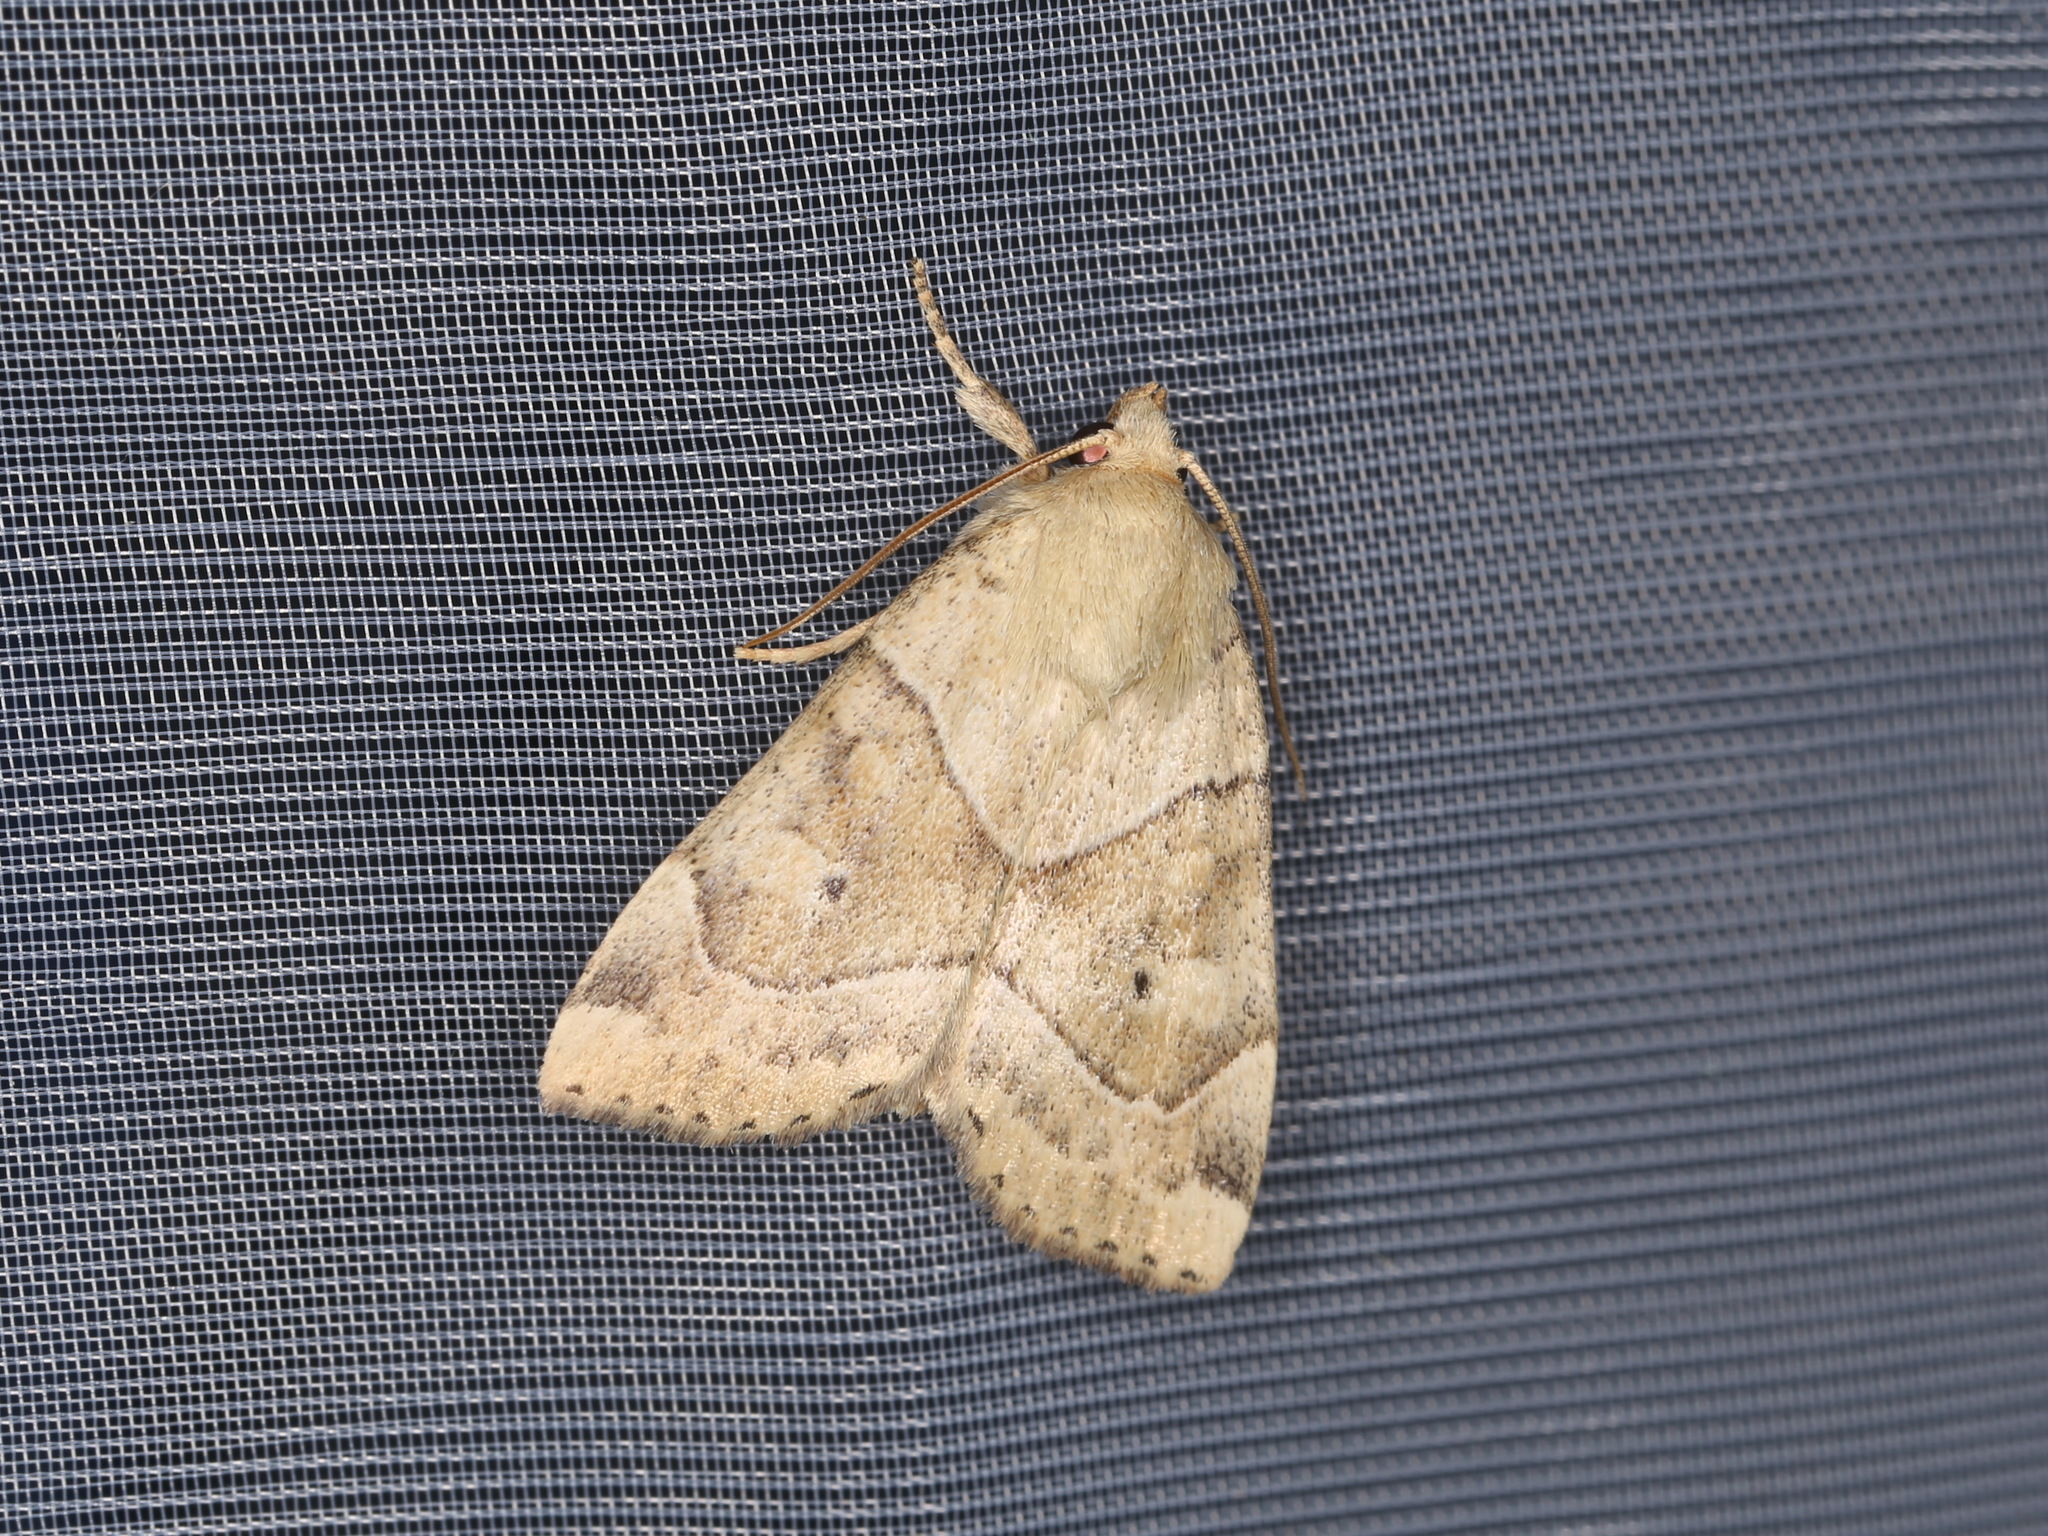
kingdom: Animalia
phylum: Arthropoda
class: Insecta
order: Lepidoptera
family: Noctuidae
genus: Cosmia
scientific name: Cosmia trapezina
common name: Dun-bar
